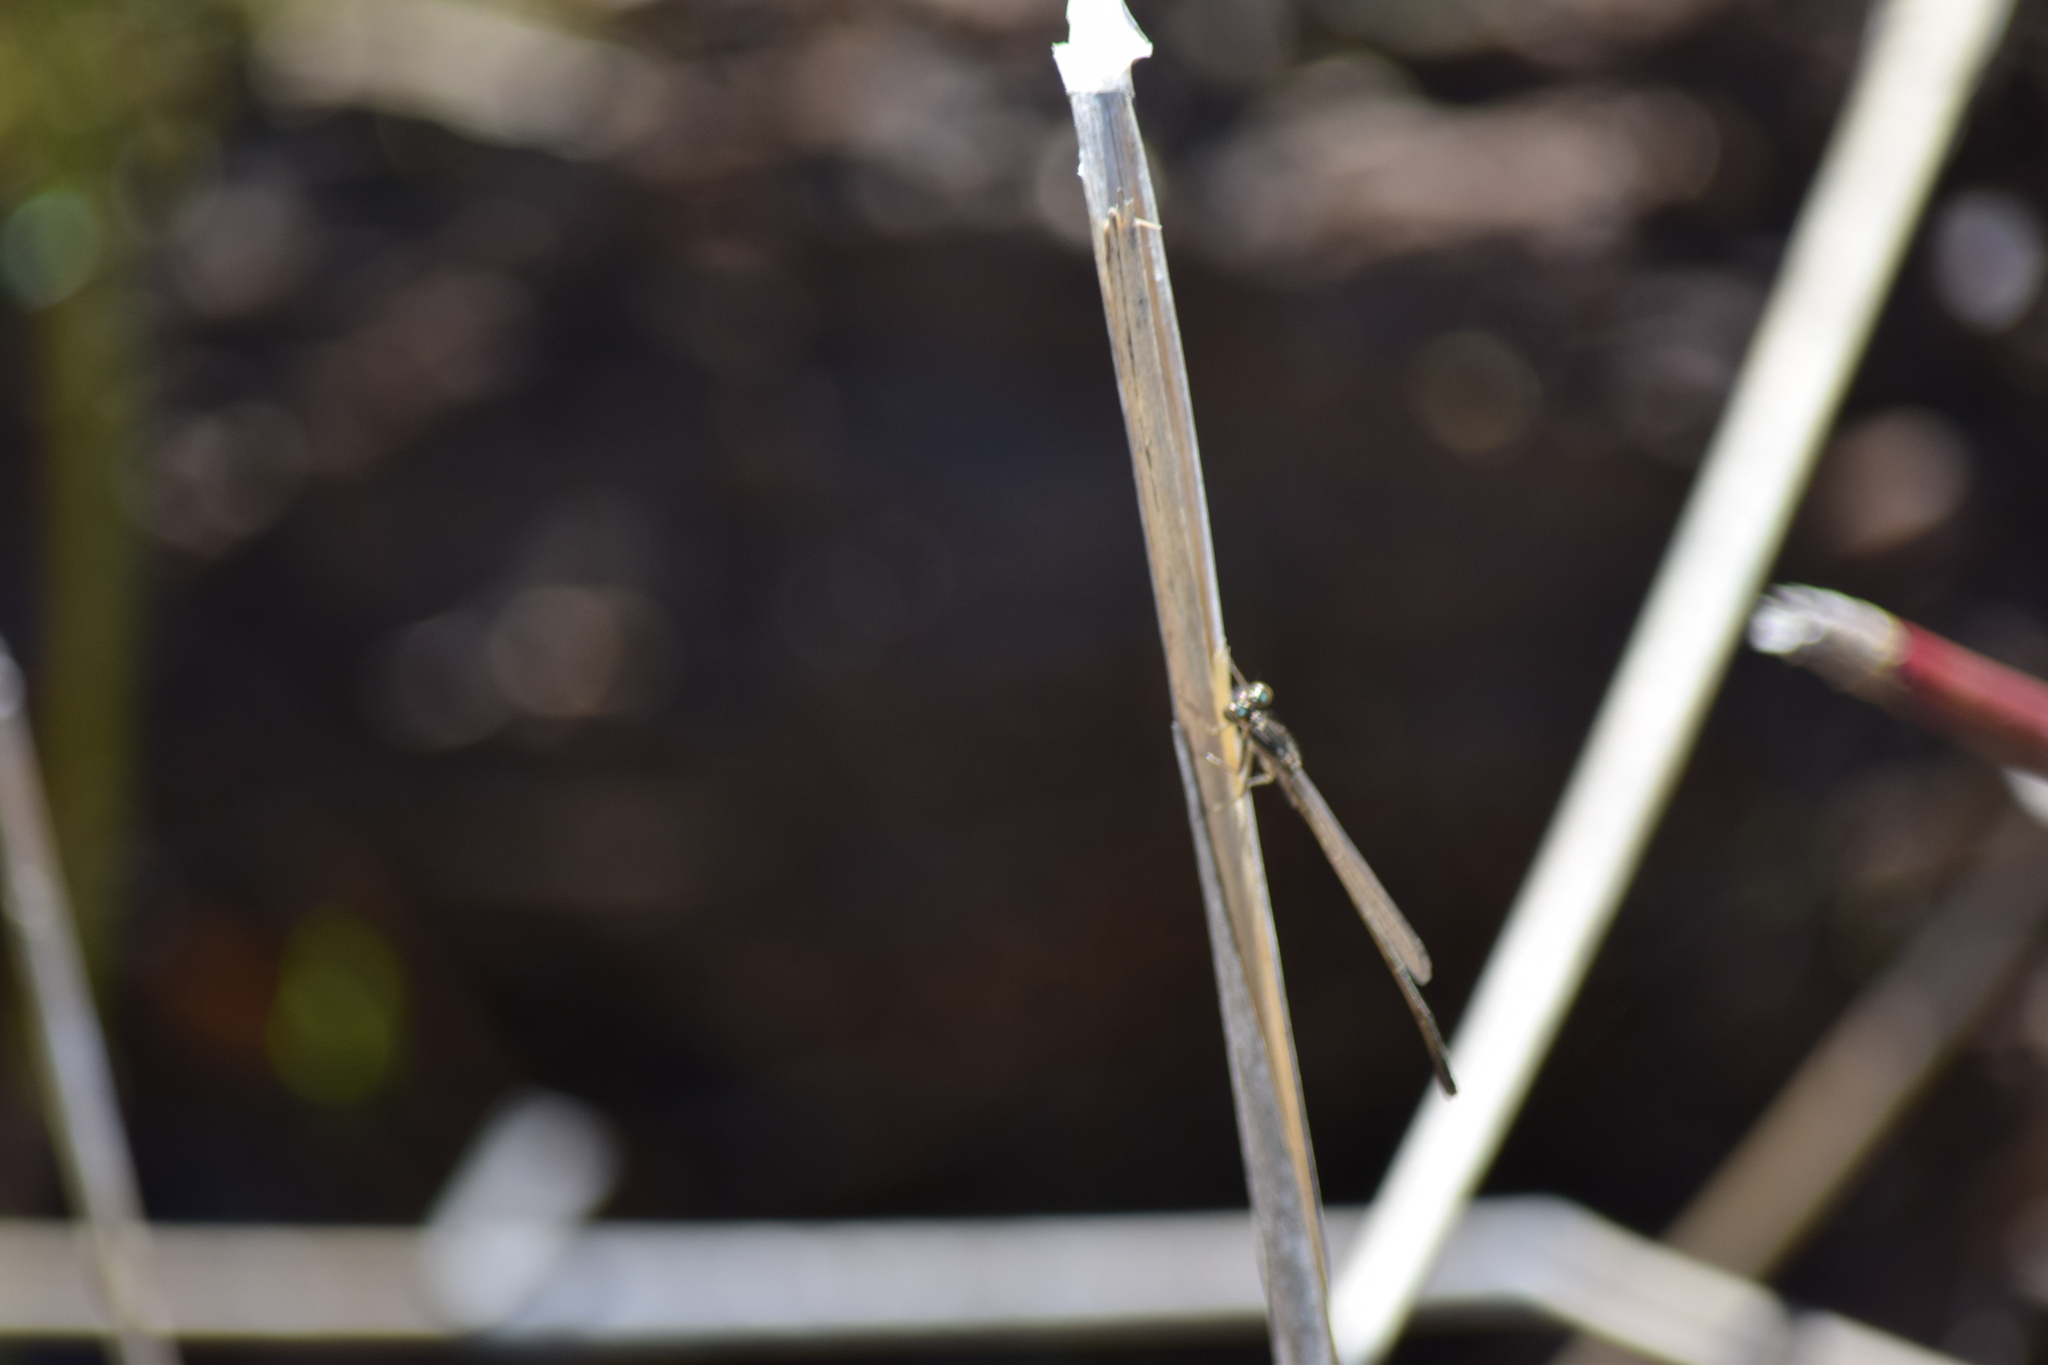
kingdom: Animalia
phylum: Arthropoda
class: Insecta
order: Odonata
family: Coenagrionidae
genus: Ischnura
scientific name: Ischnura posita
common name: Fragile forktail
